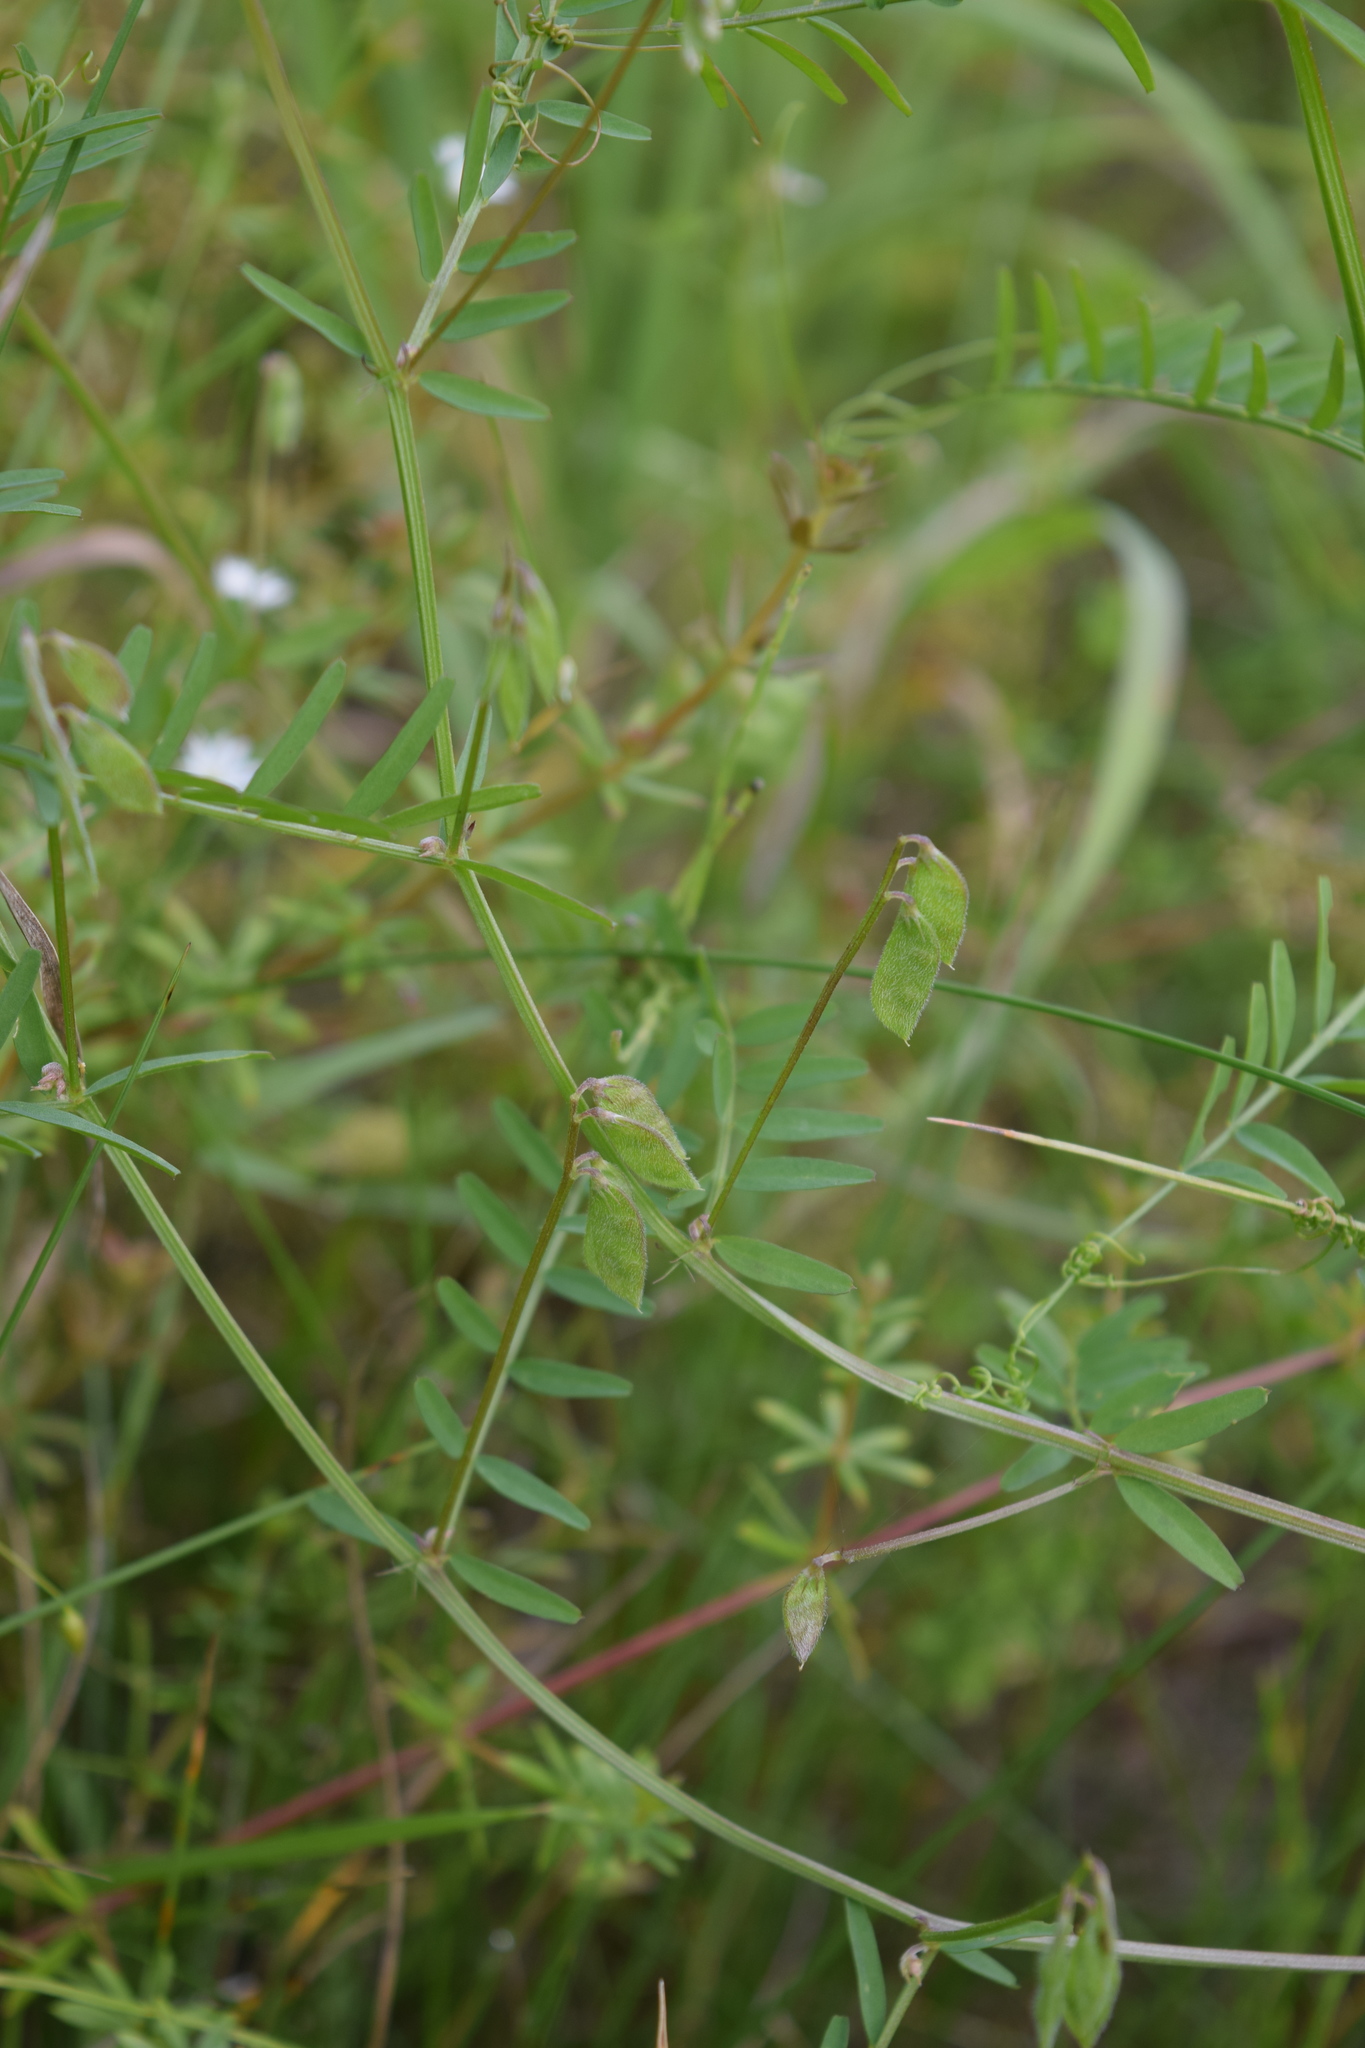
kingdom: Plantae
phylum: Tracheophyta
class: Magnoliopsida
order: Fabales
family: Fabaceae
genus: Vicia
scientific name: Vicia hirsuta
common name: Tiny vetch
